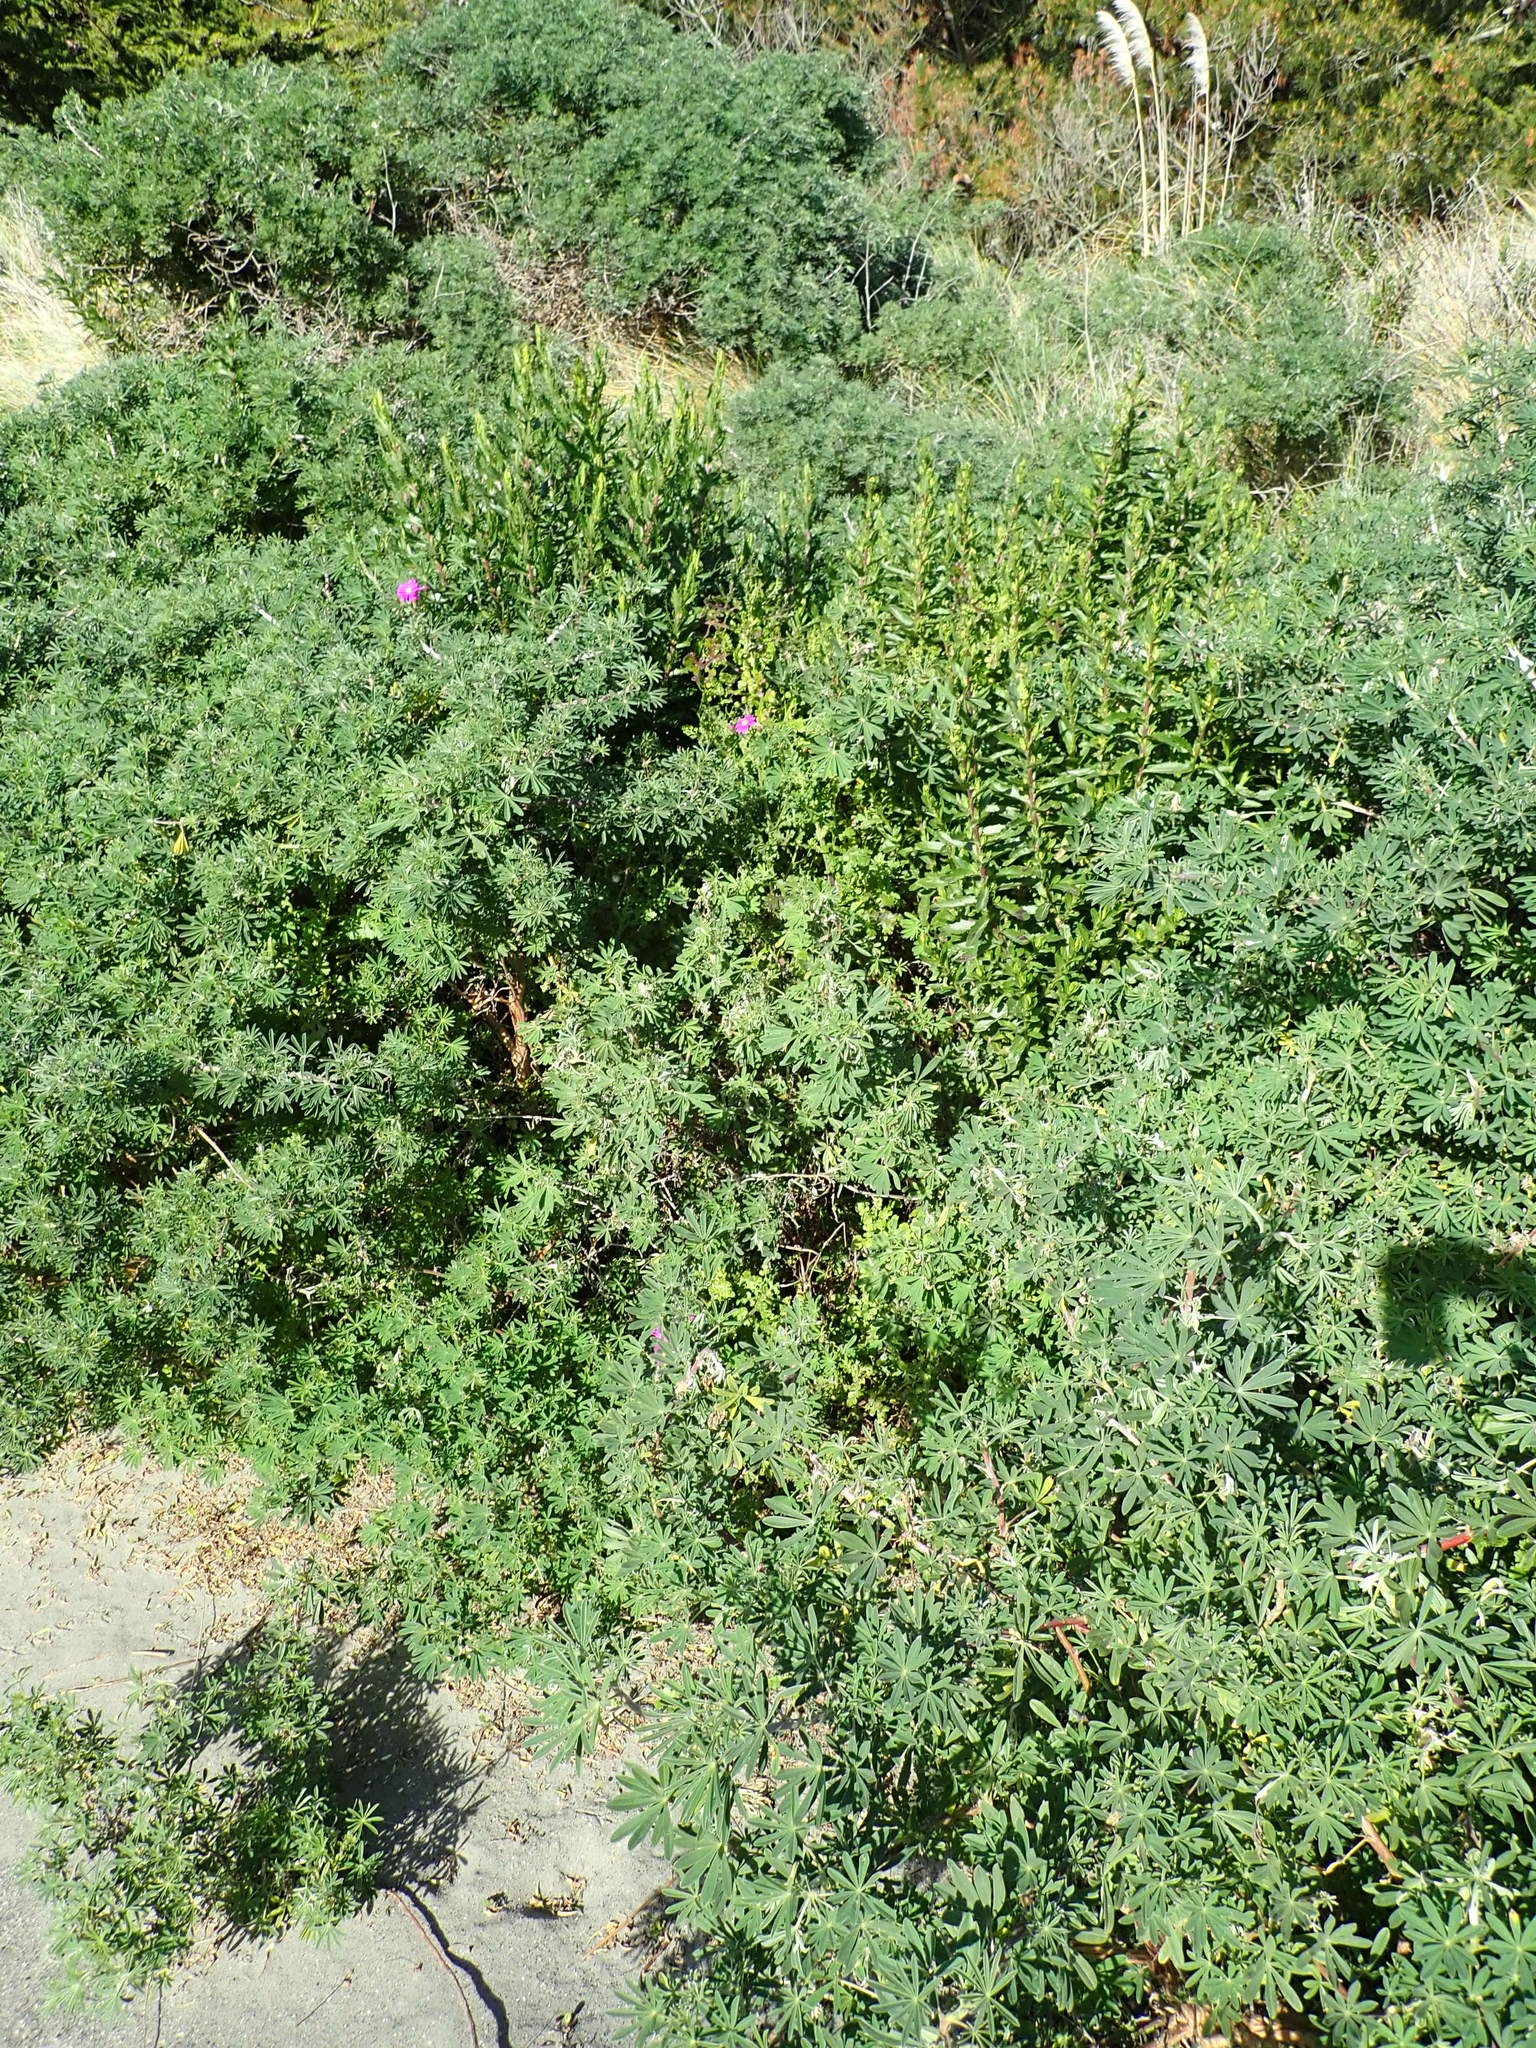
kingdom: Plantae
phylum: Tracheophyta
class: Magnoliopsida
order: Asterales
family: Asteraceae
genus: Senecio
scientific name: Senecio elegans
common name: Purple groundsel
